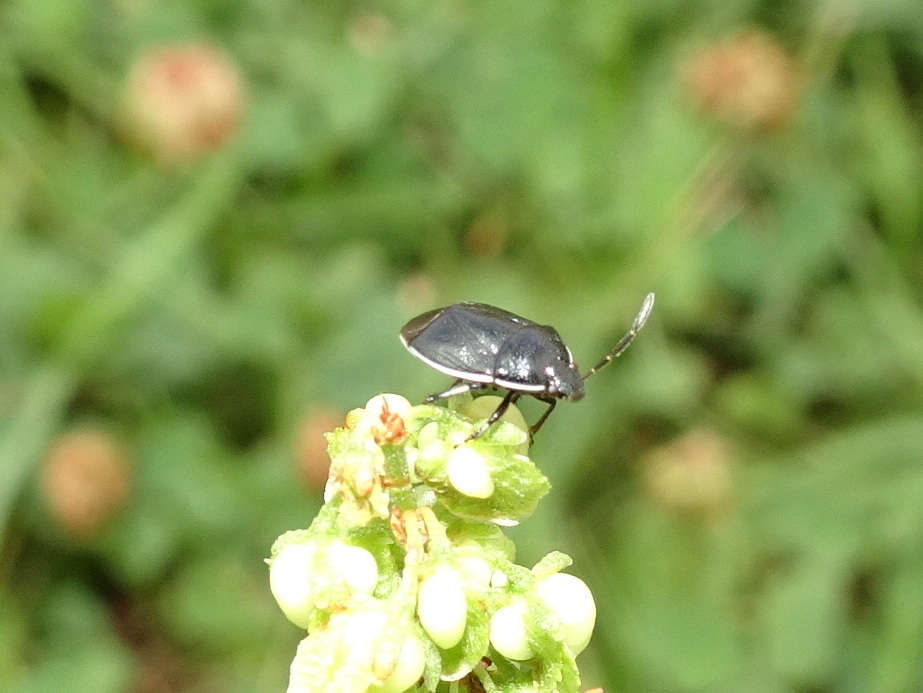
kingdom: Animalia
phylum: Arthropoda
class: Insecta
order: Hemiptera
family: Cydnidae
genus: Sehirus
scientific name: Sehirus cinctus
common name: White-margined burrower bug
